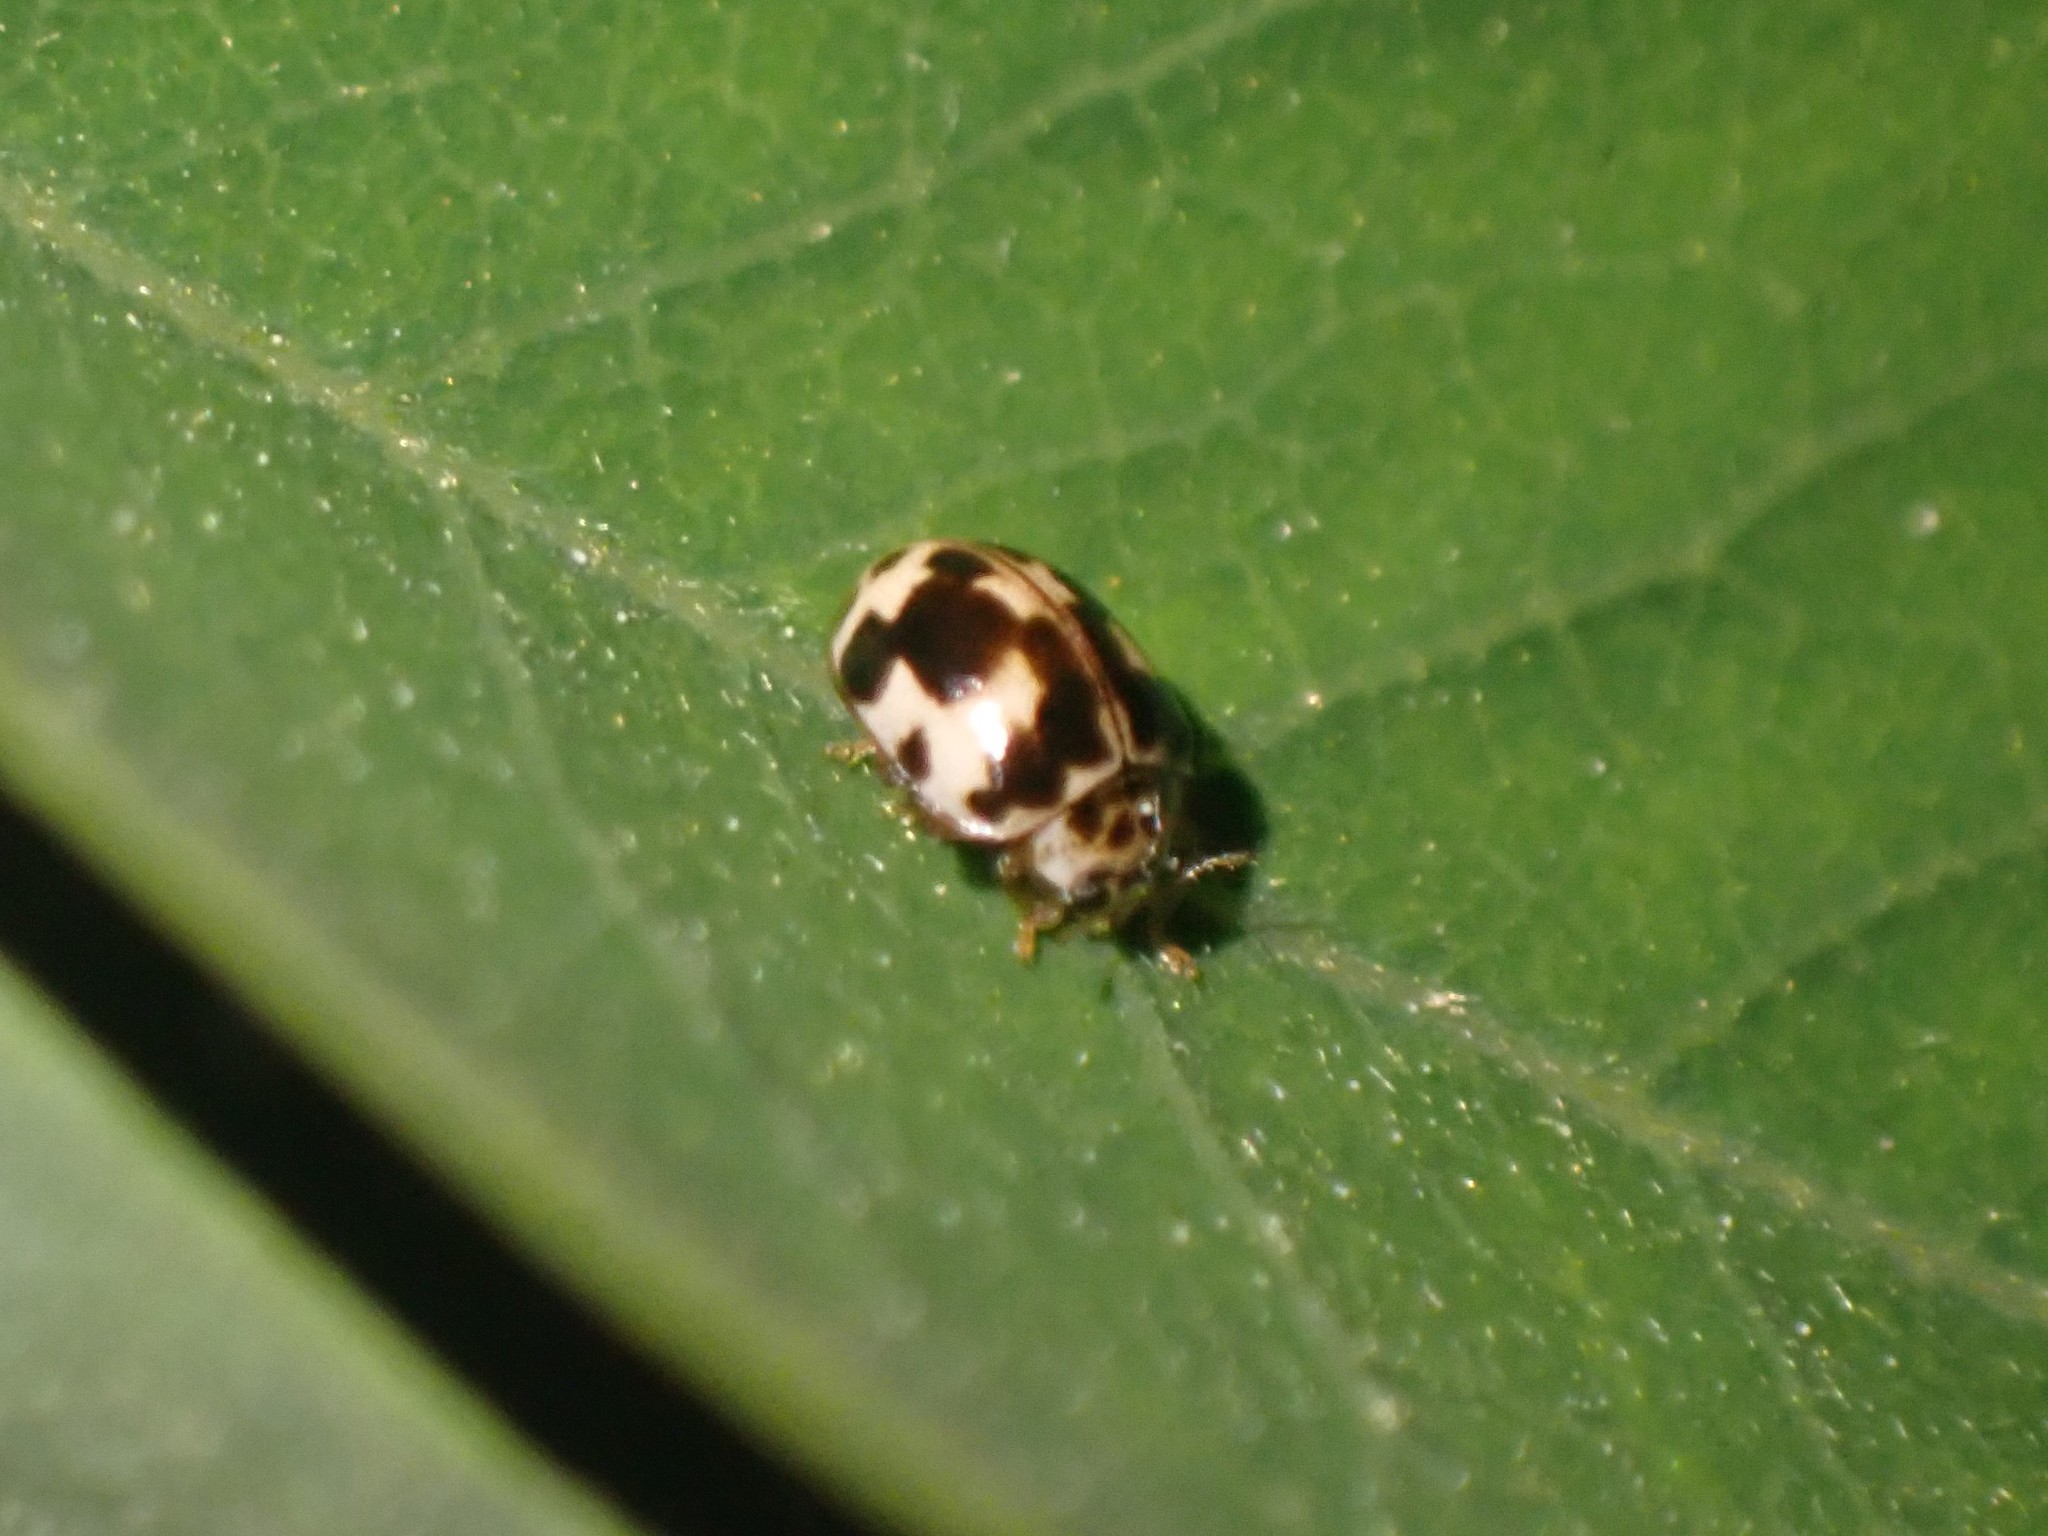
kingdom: Animalia
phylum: Arthropoda
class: Insecta
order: Coleoptera
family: Coccinellidae
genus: Psyllobora
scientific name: Psyllobora borealis
